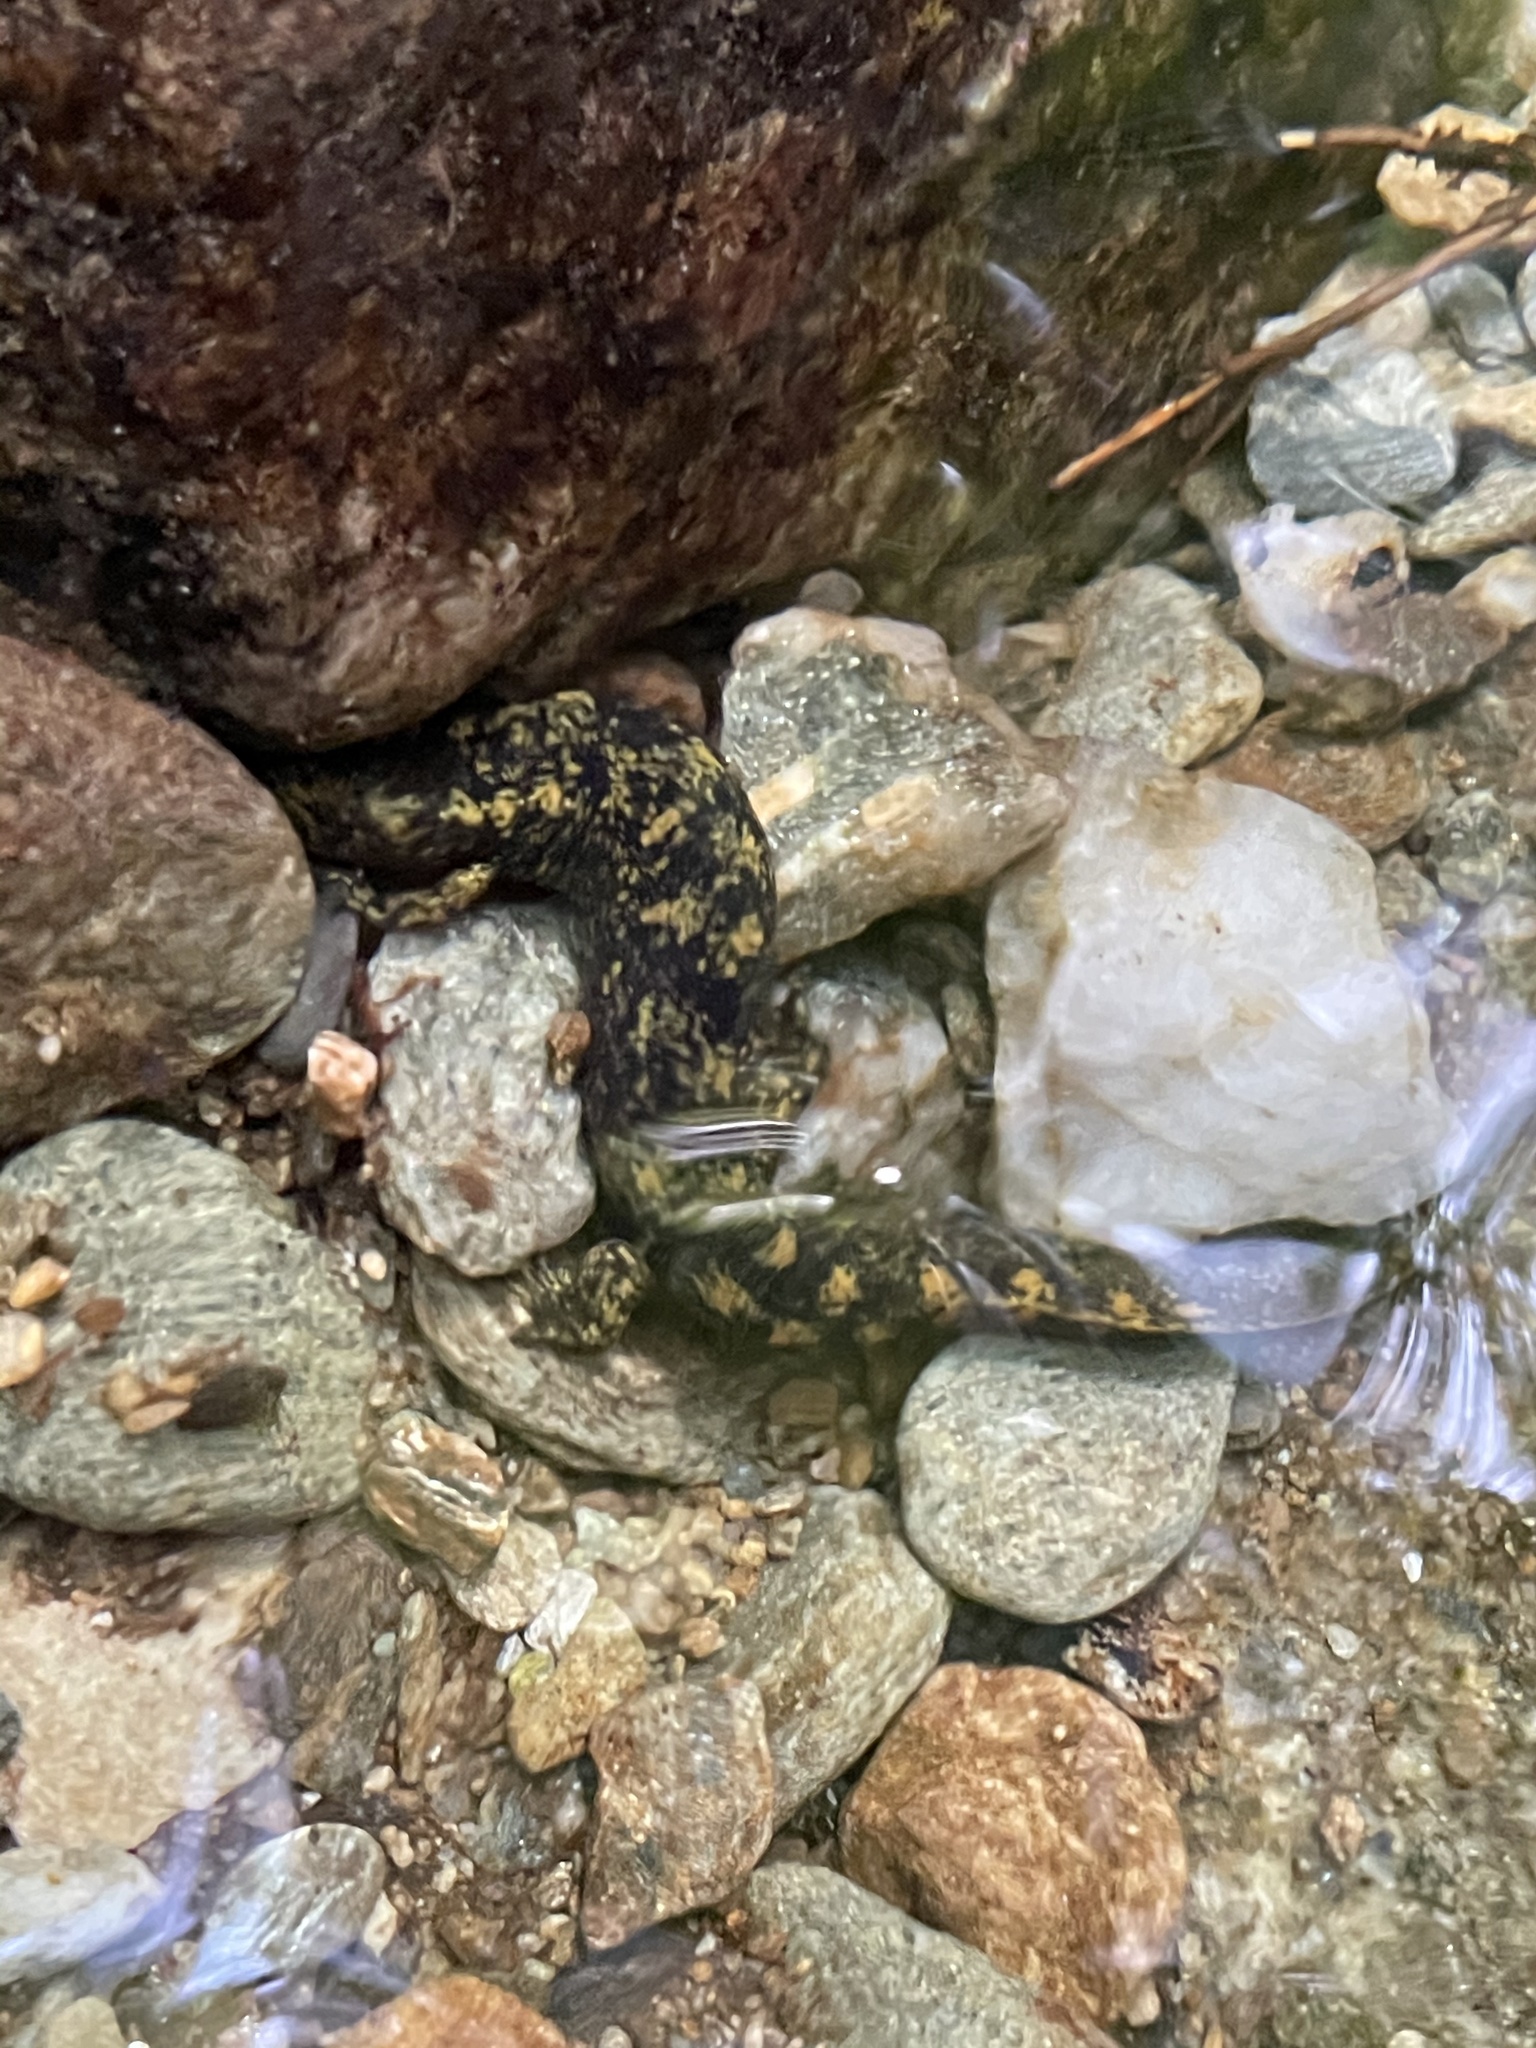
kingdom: Animalia
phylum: Chordata
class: Amphibia
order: Caudata
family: Plethodontidae
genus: Desmognathus
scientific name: Desmognathus marmoratus
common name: Shovel-nosed salamander
